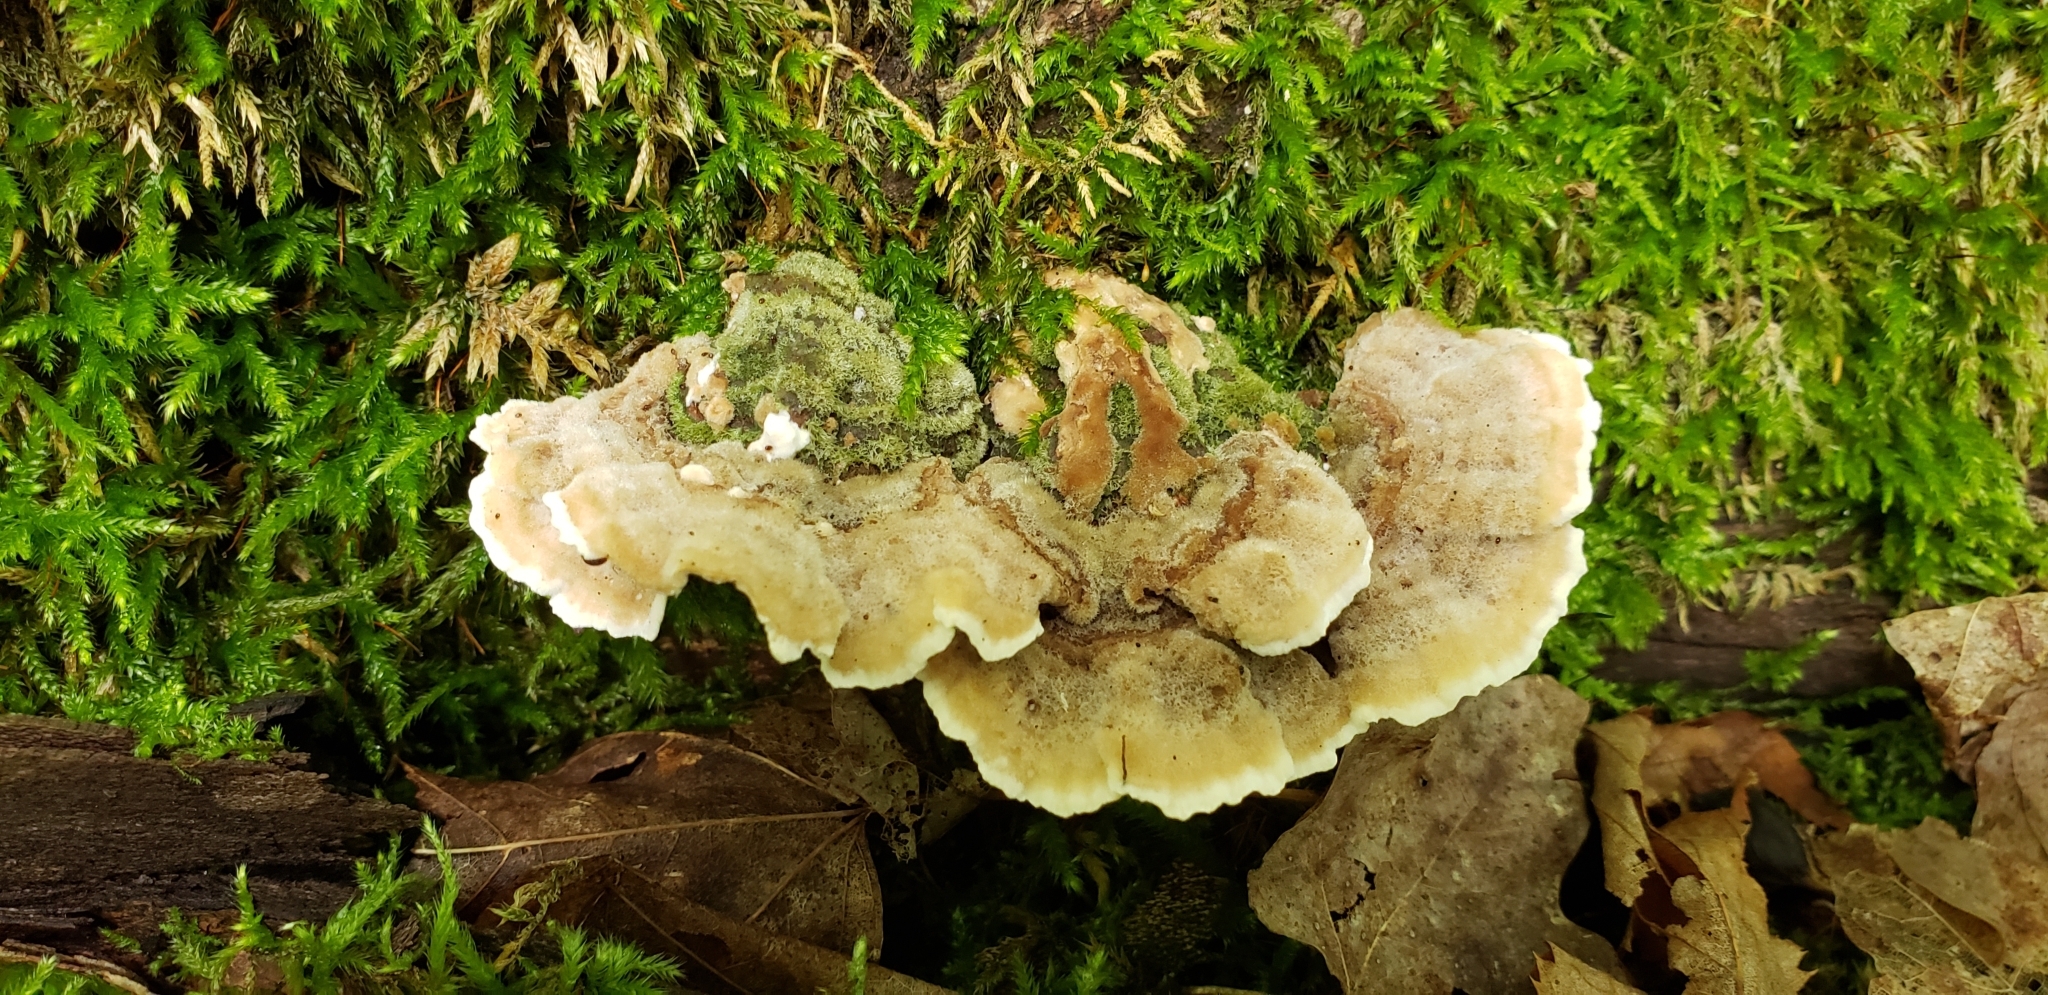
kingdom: Fungi
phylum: Basidiomycota
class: Agaricomycetes
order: Polyporales
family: Cerrenaceae
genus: Cerrena
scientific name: Cerrena unicolor
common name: Mossy maze polypore
